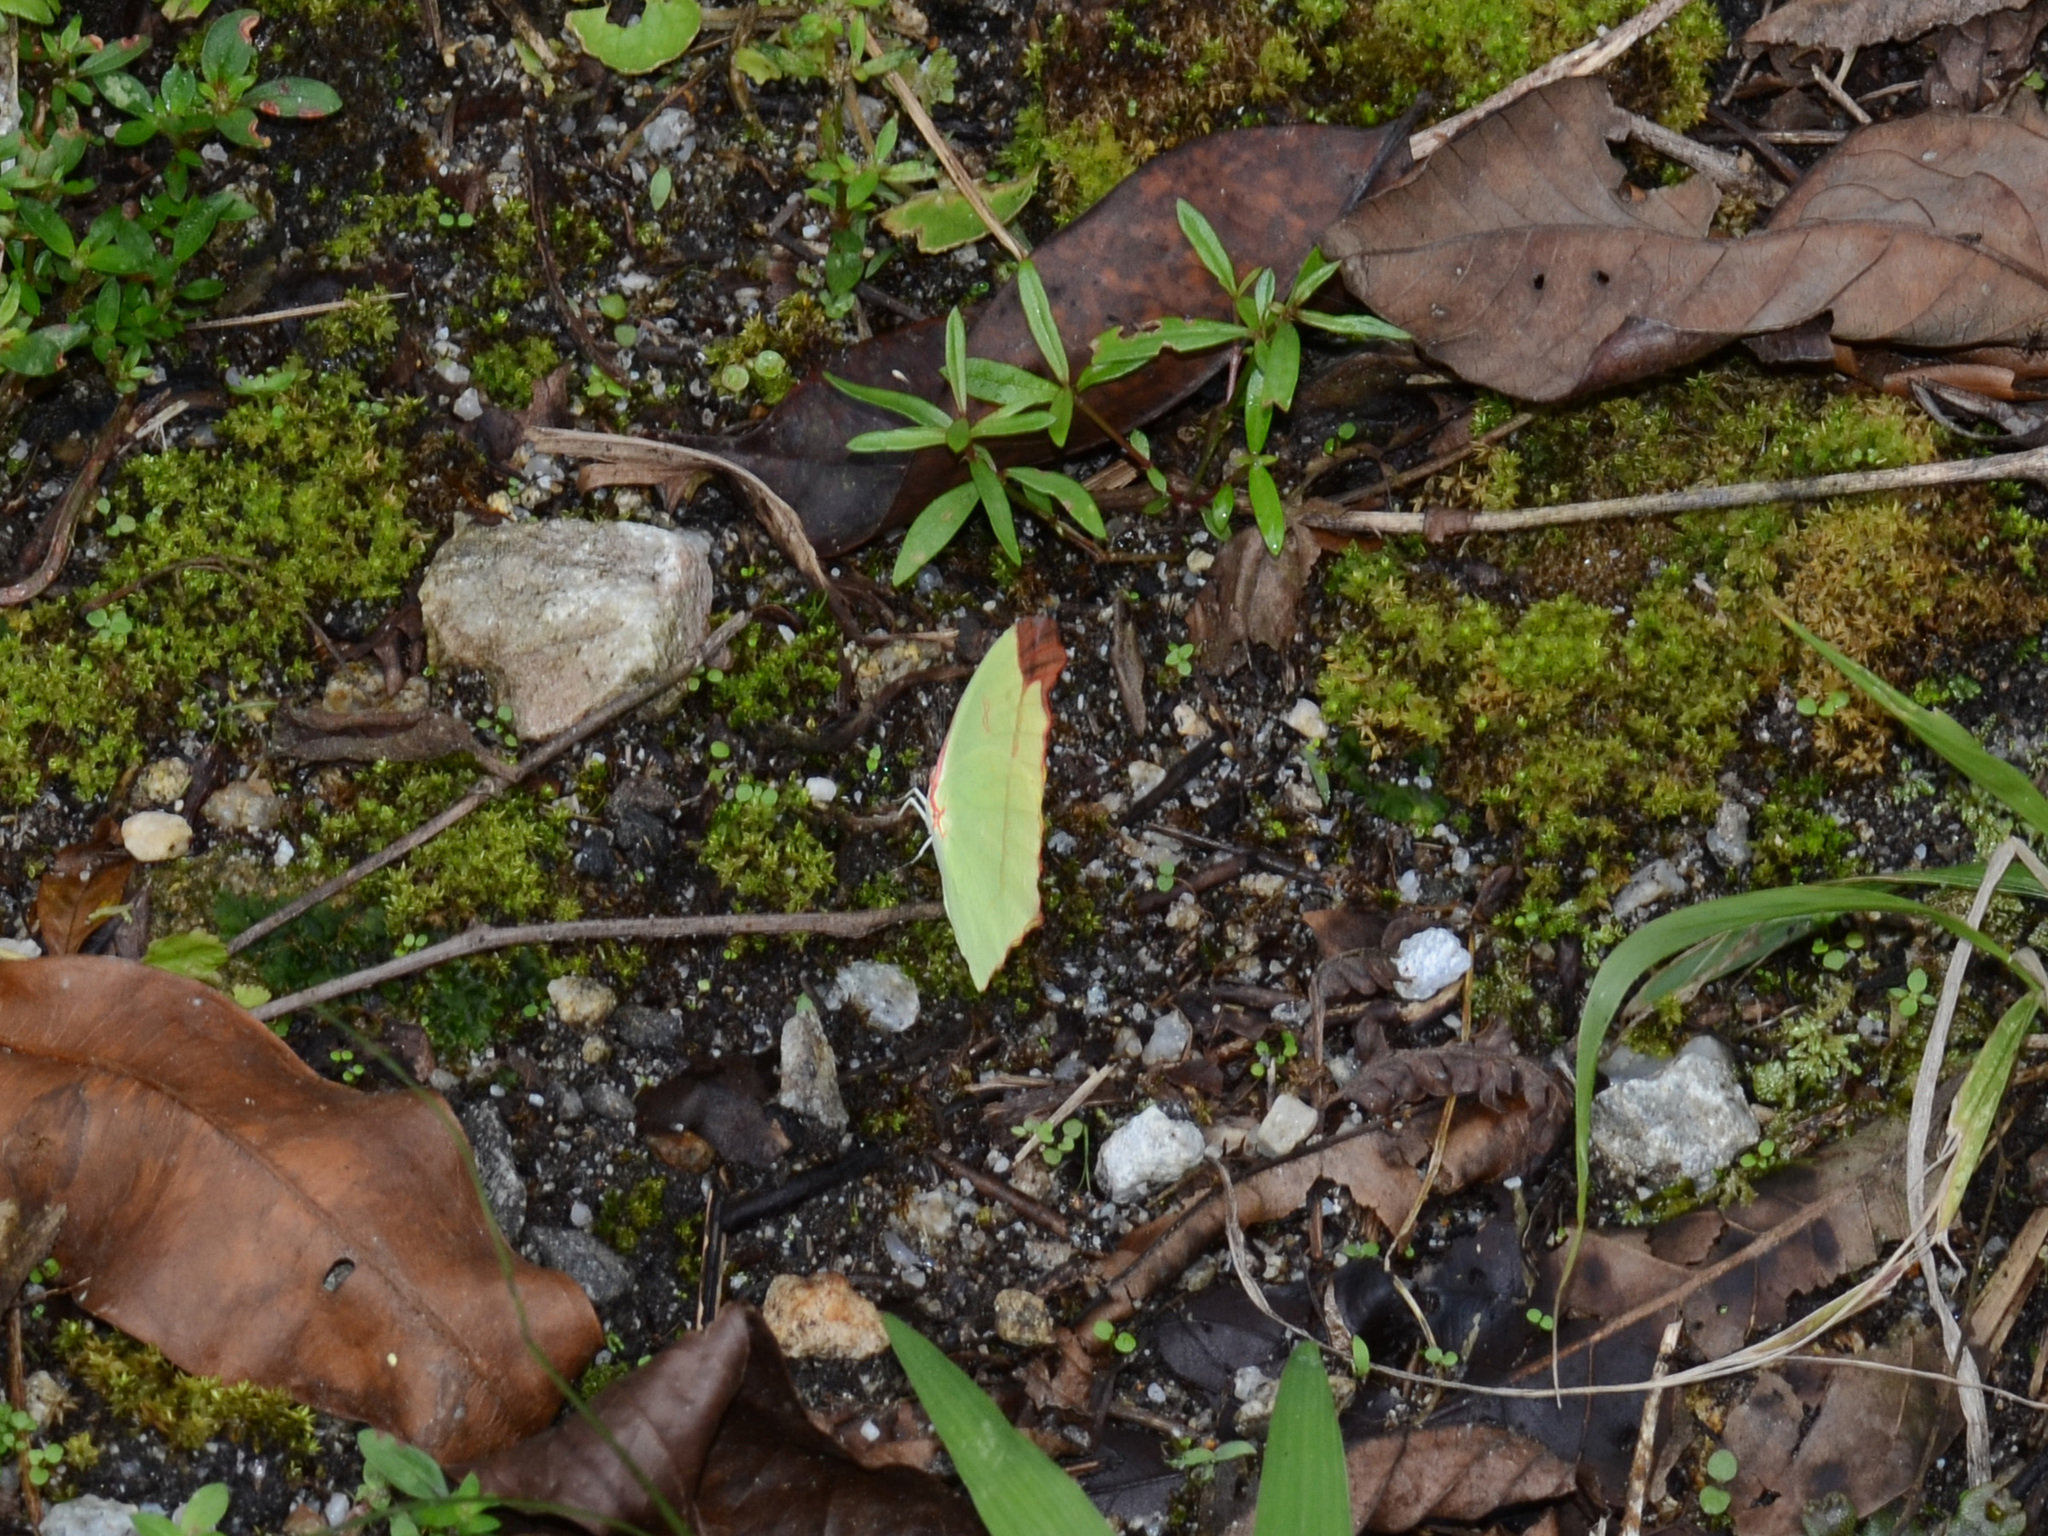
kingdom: Animalia
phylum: Arthropoda
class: Insecta
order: Lepidoptera
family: Pieridae
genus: Dercas
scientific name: Dercas gobrias
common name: Angled sulfur
